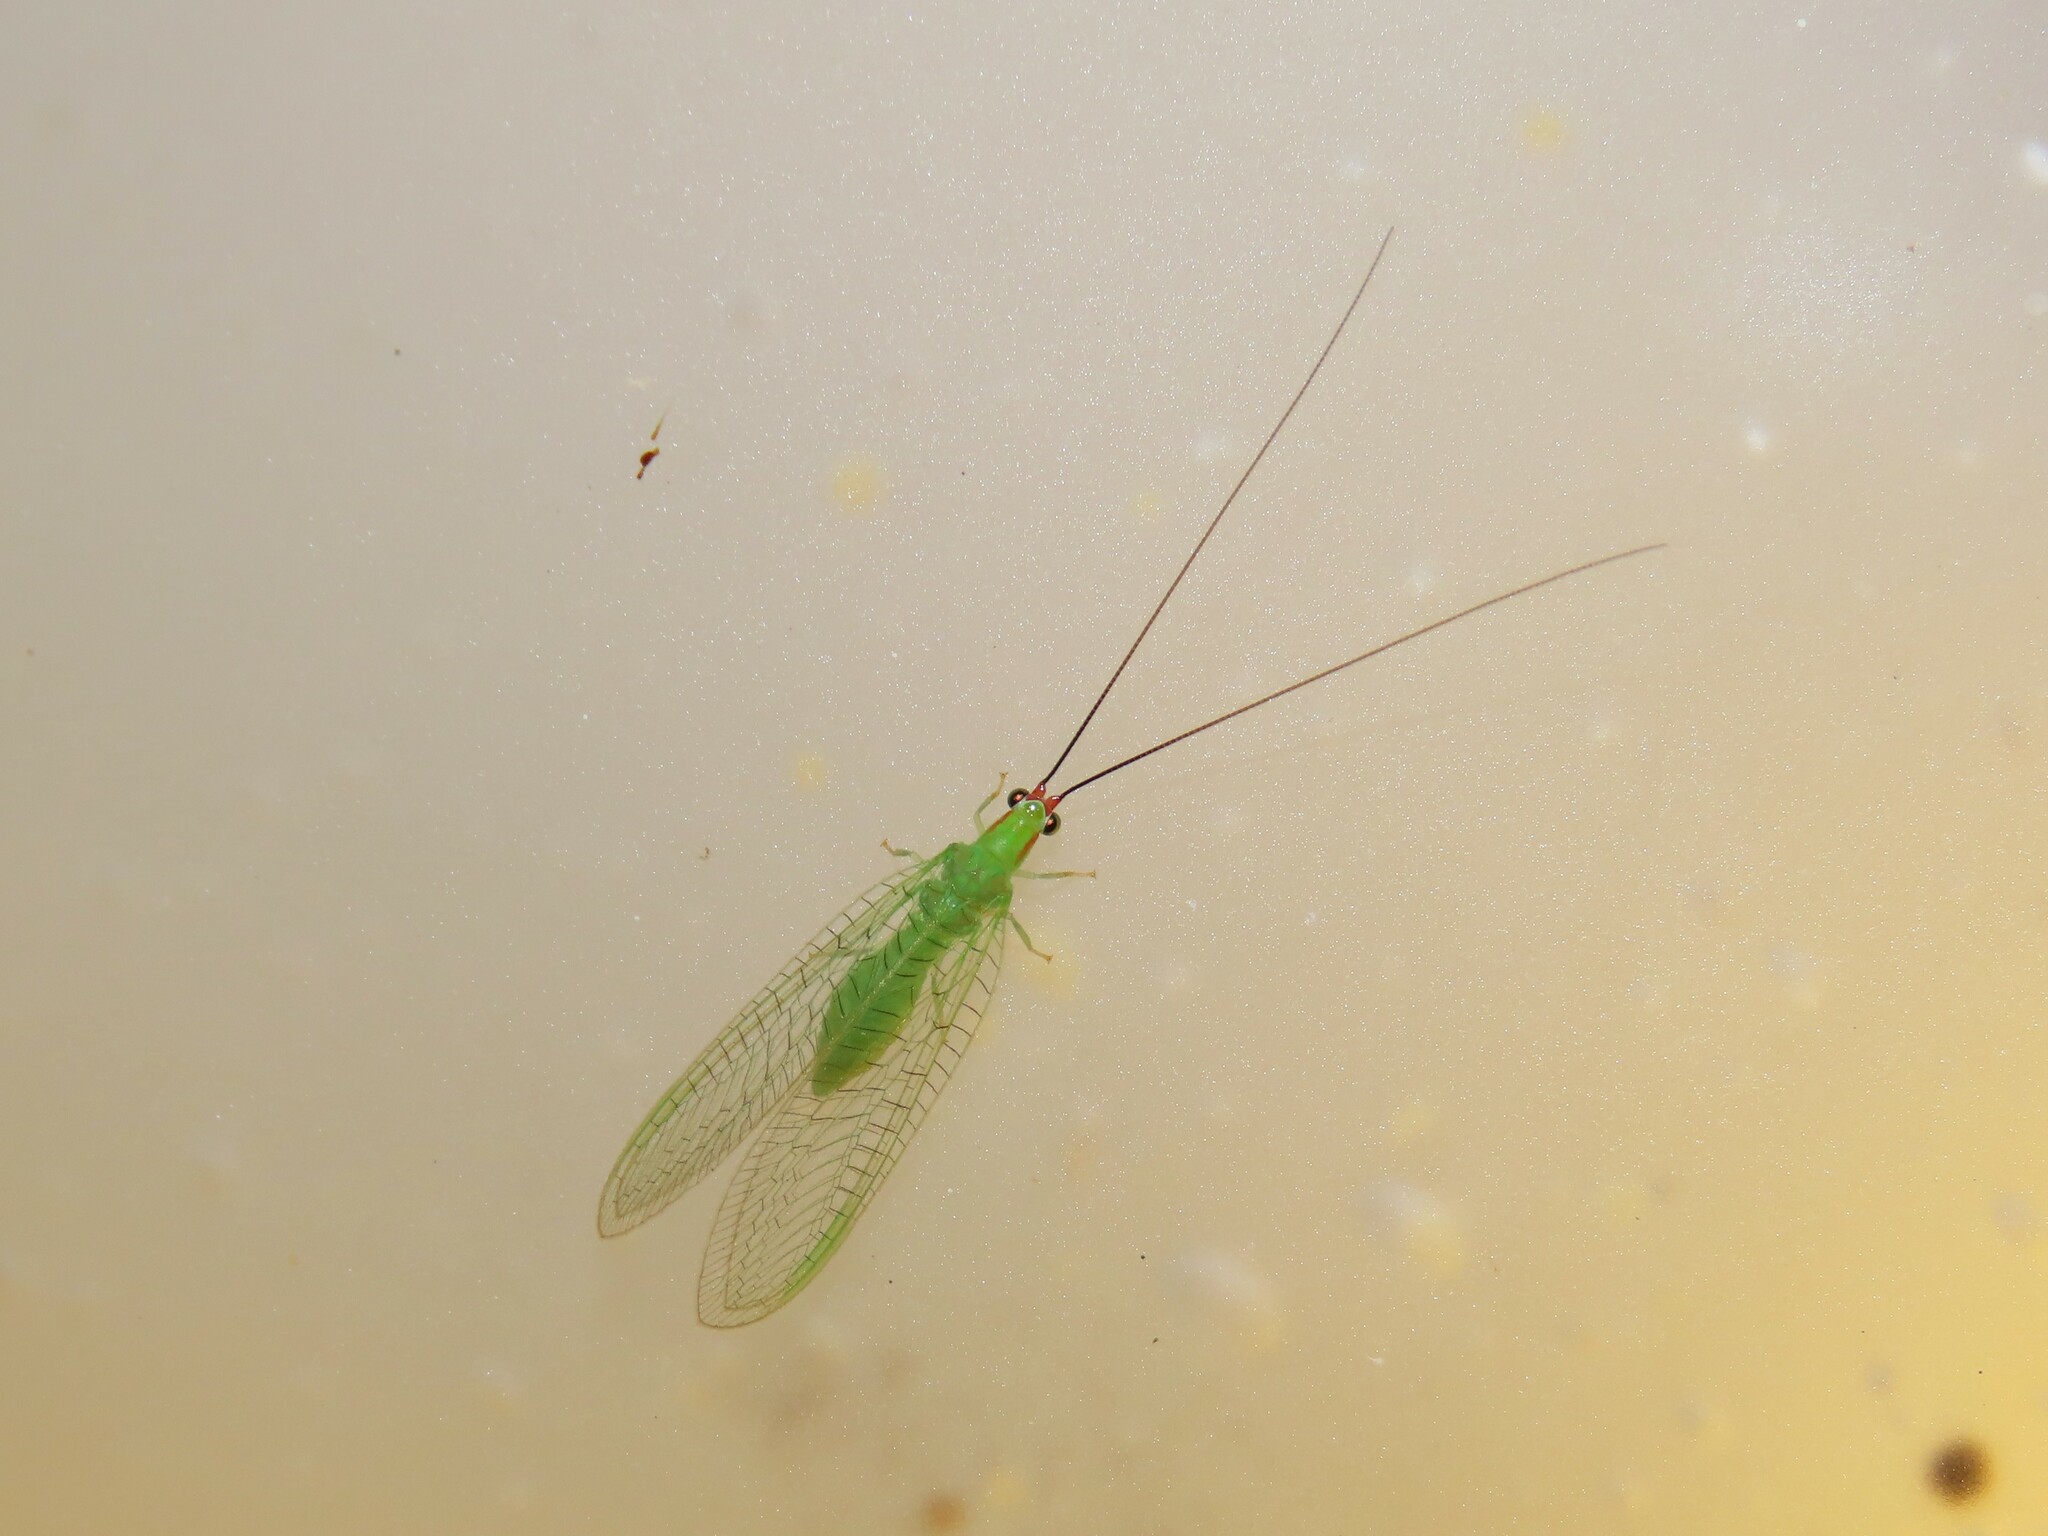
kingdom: Animalia
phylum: Arthropoda
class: Insecta
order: Neuroptera
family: Chrysopidae
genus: Ceraeochrysa
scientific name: Ceraeochrysa smithi
